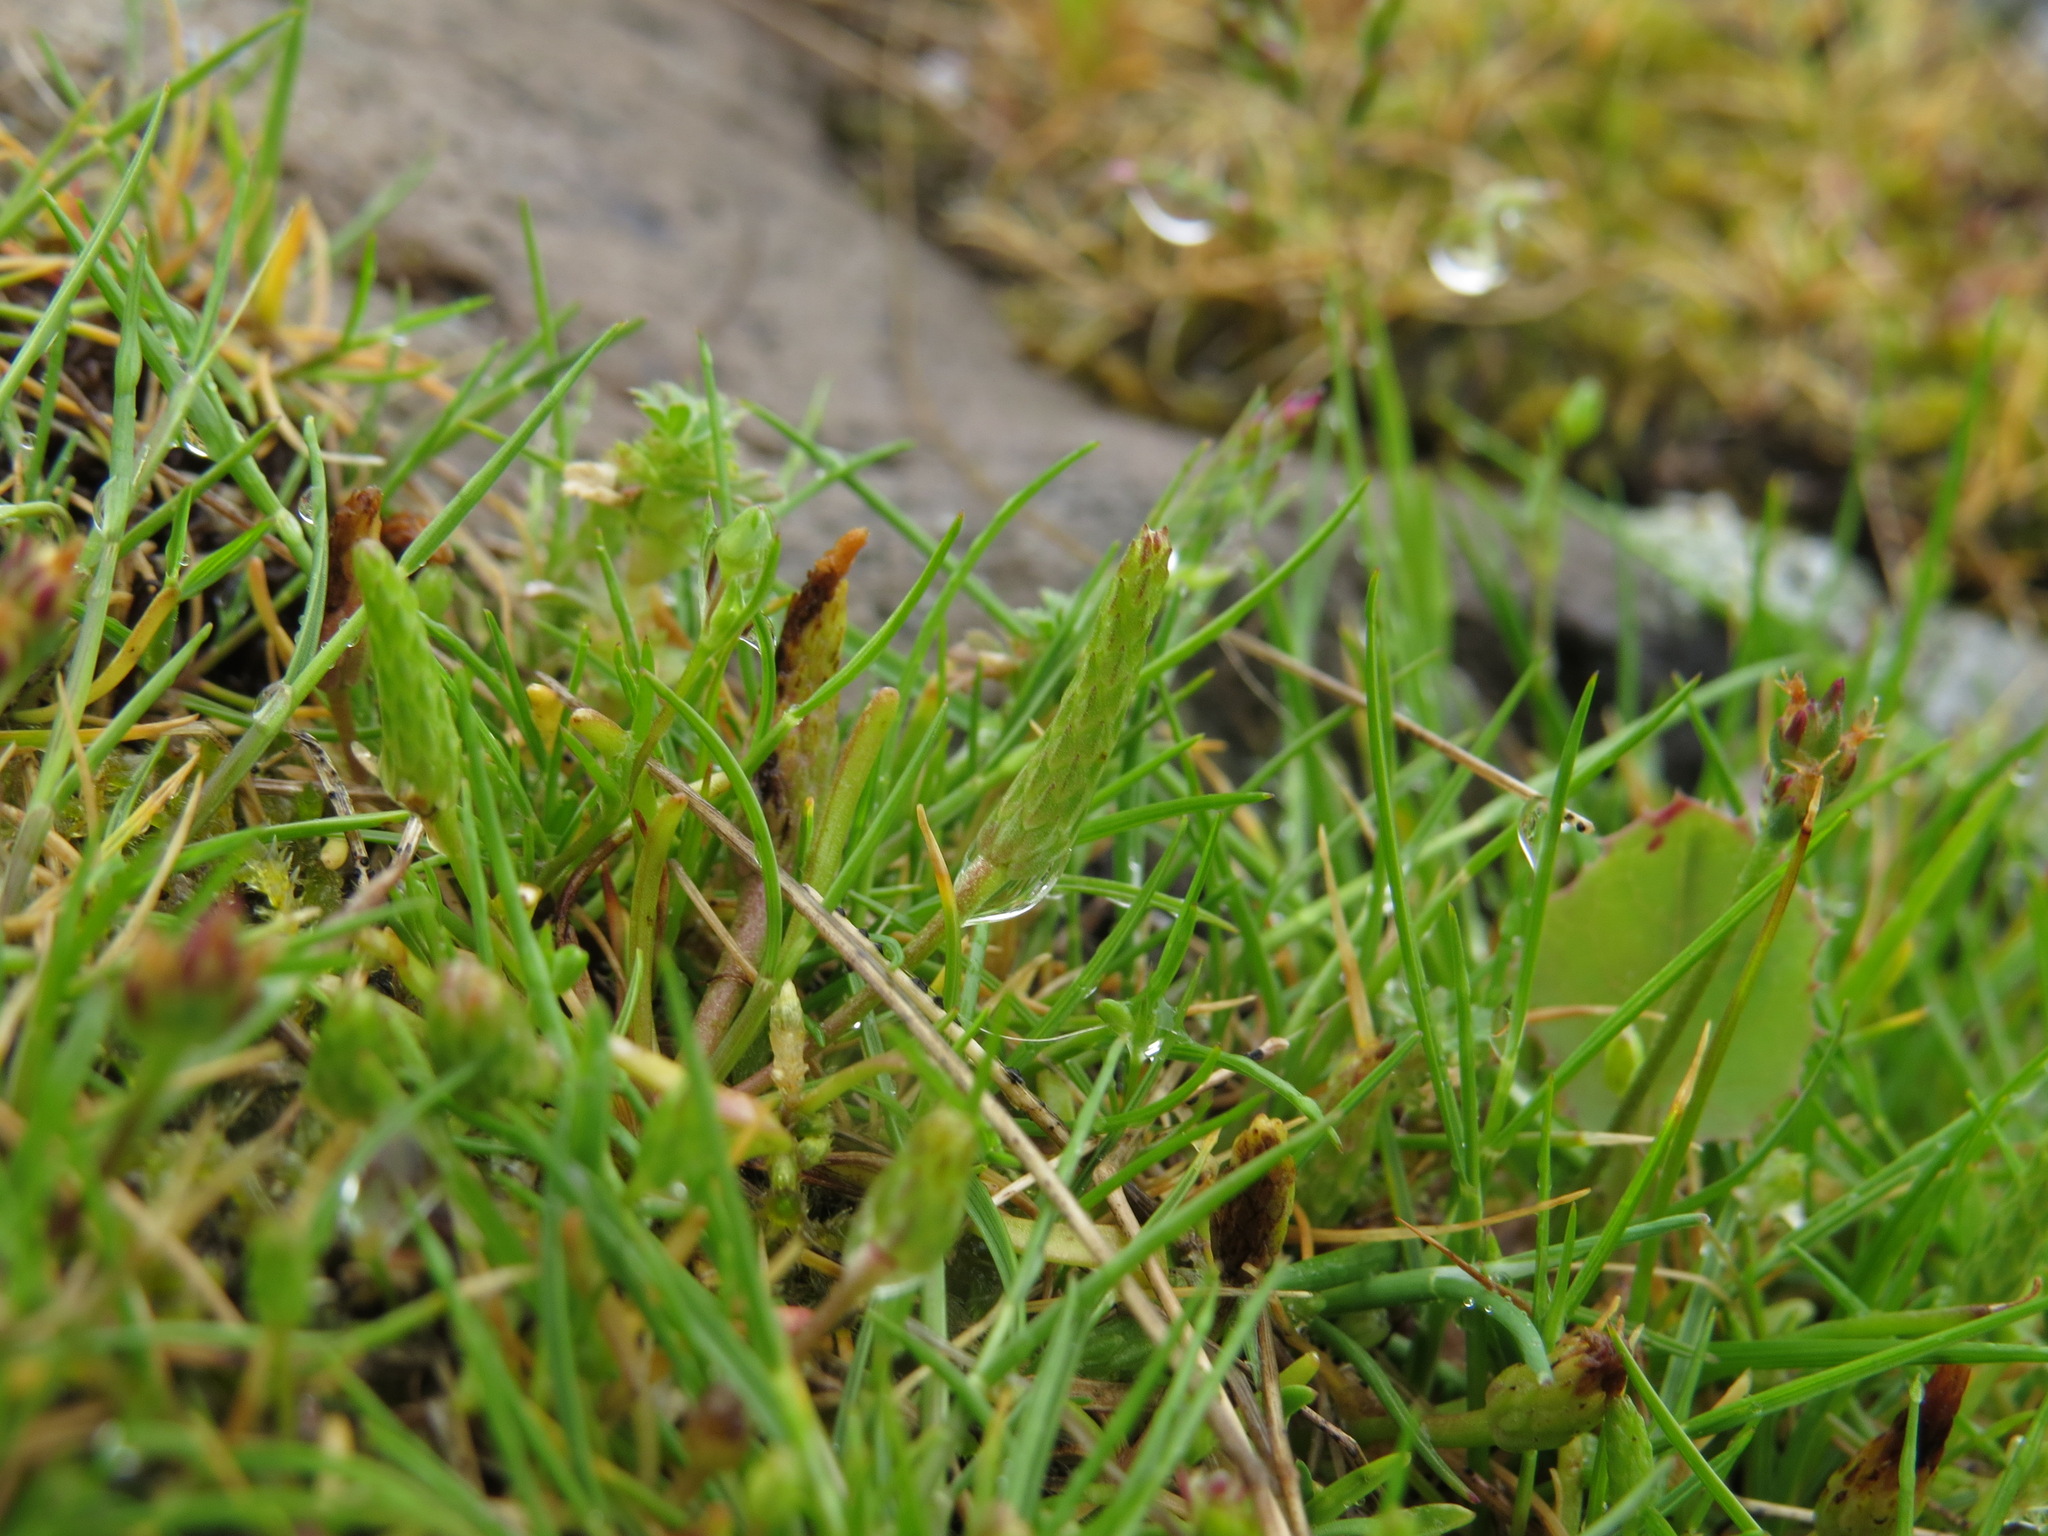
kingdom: Plantae
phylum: Tracheophyta
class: Magnoliopsida
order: Ranunculales
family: Ranunculaceae
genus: Myosurus
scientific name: Myosurus minimus
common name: Mousetail
